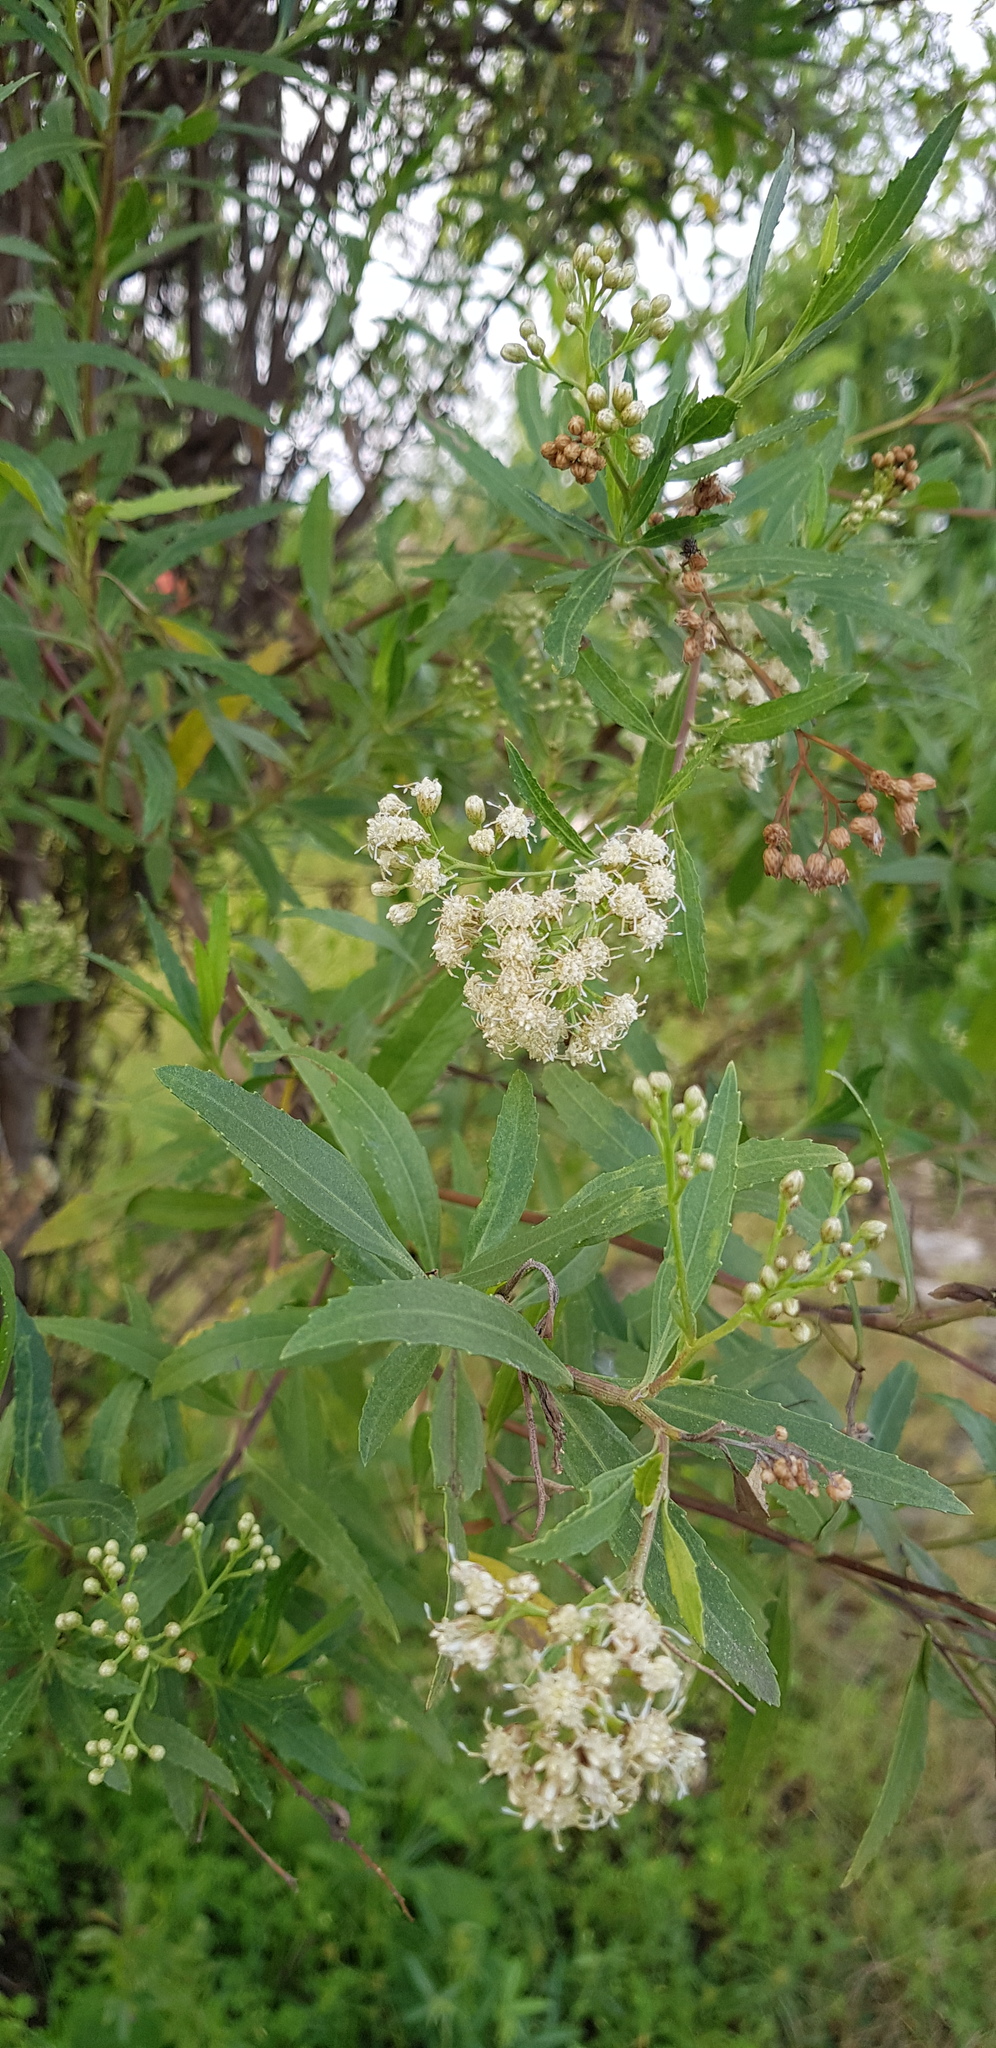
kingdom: Plantae
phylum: Tracheophyta
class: Magnoliopsida
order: Asterales
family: Asteraceae
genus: Baccharis
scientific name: Baccharis salicifolia
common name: Sticky baccharis
